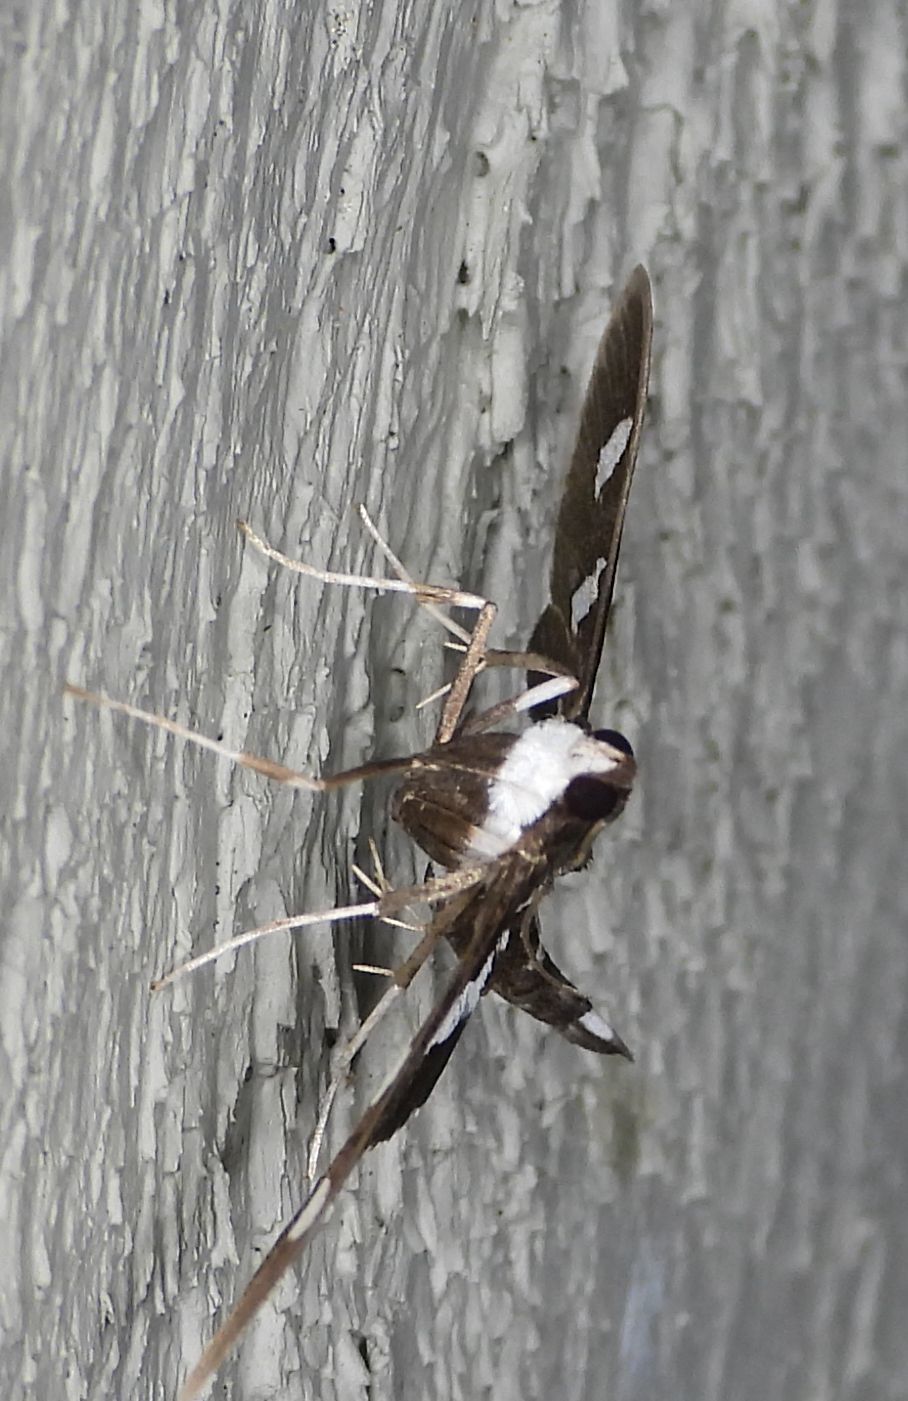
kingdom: Animalia
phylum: Arthropoda
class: Insecta
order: Lepidoptera
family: Crambidae
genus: Desmia
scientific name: Desmia
